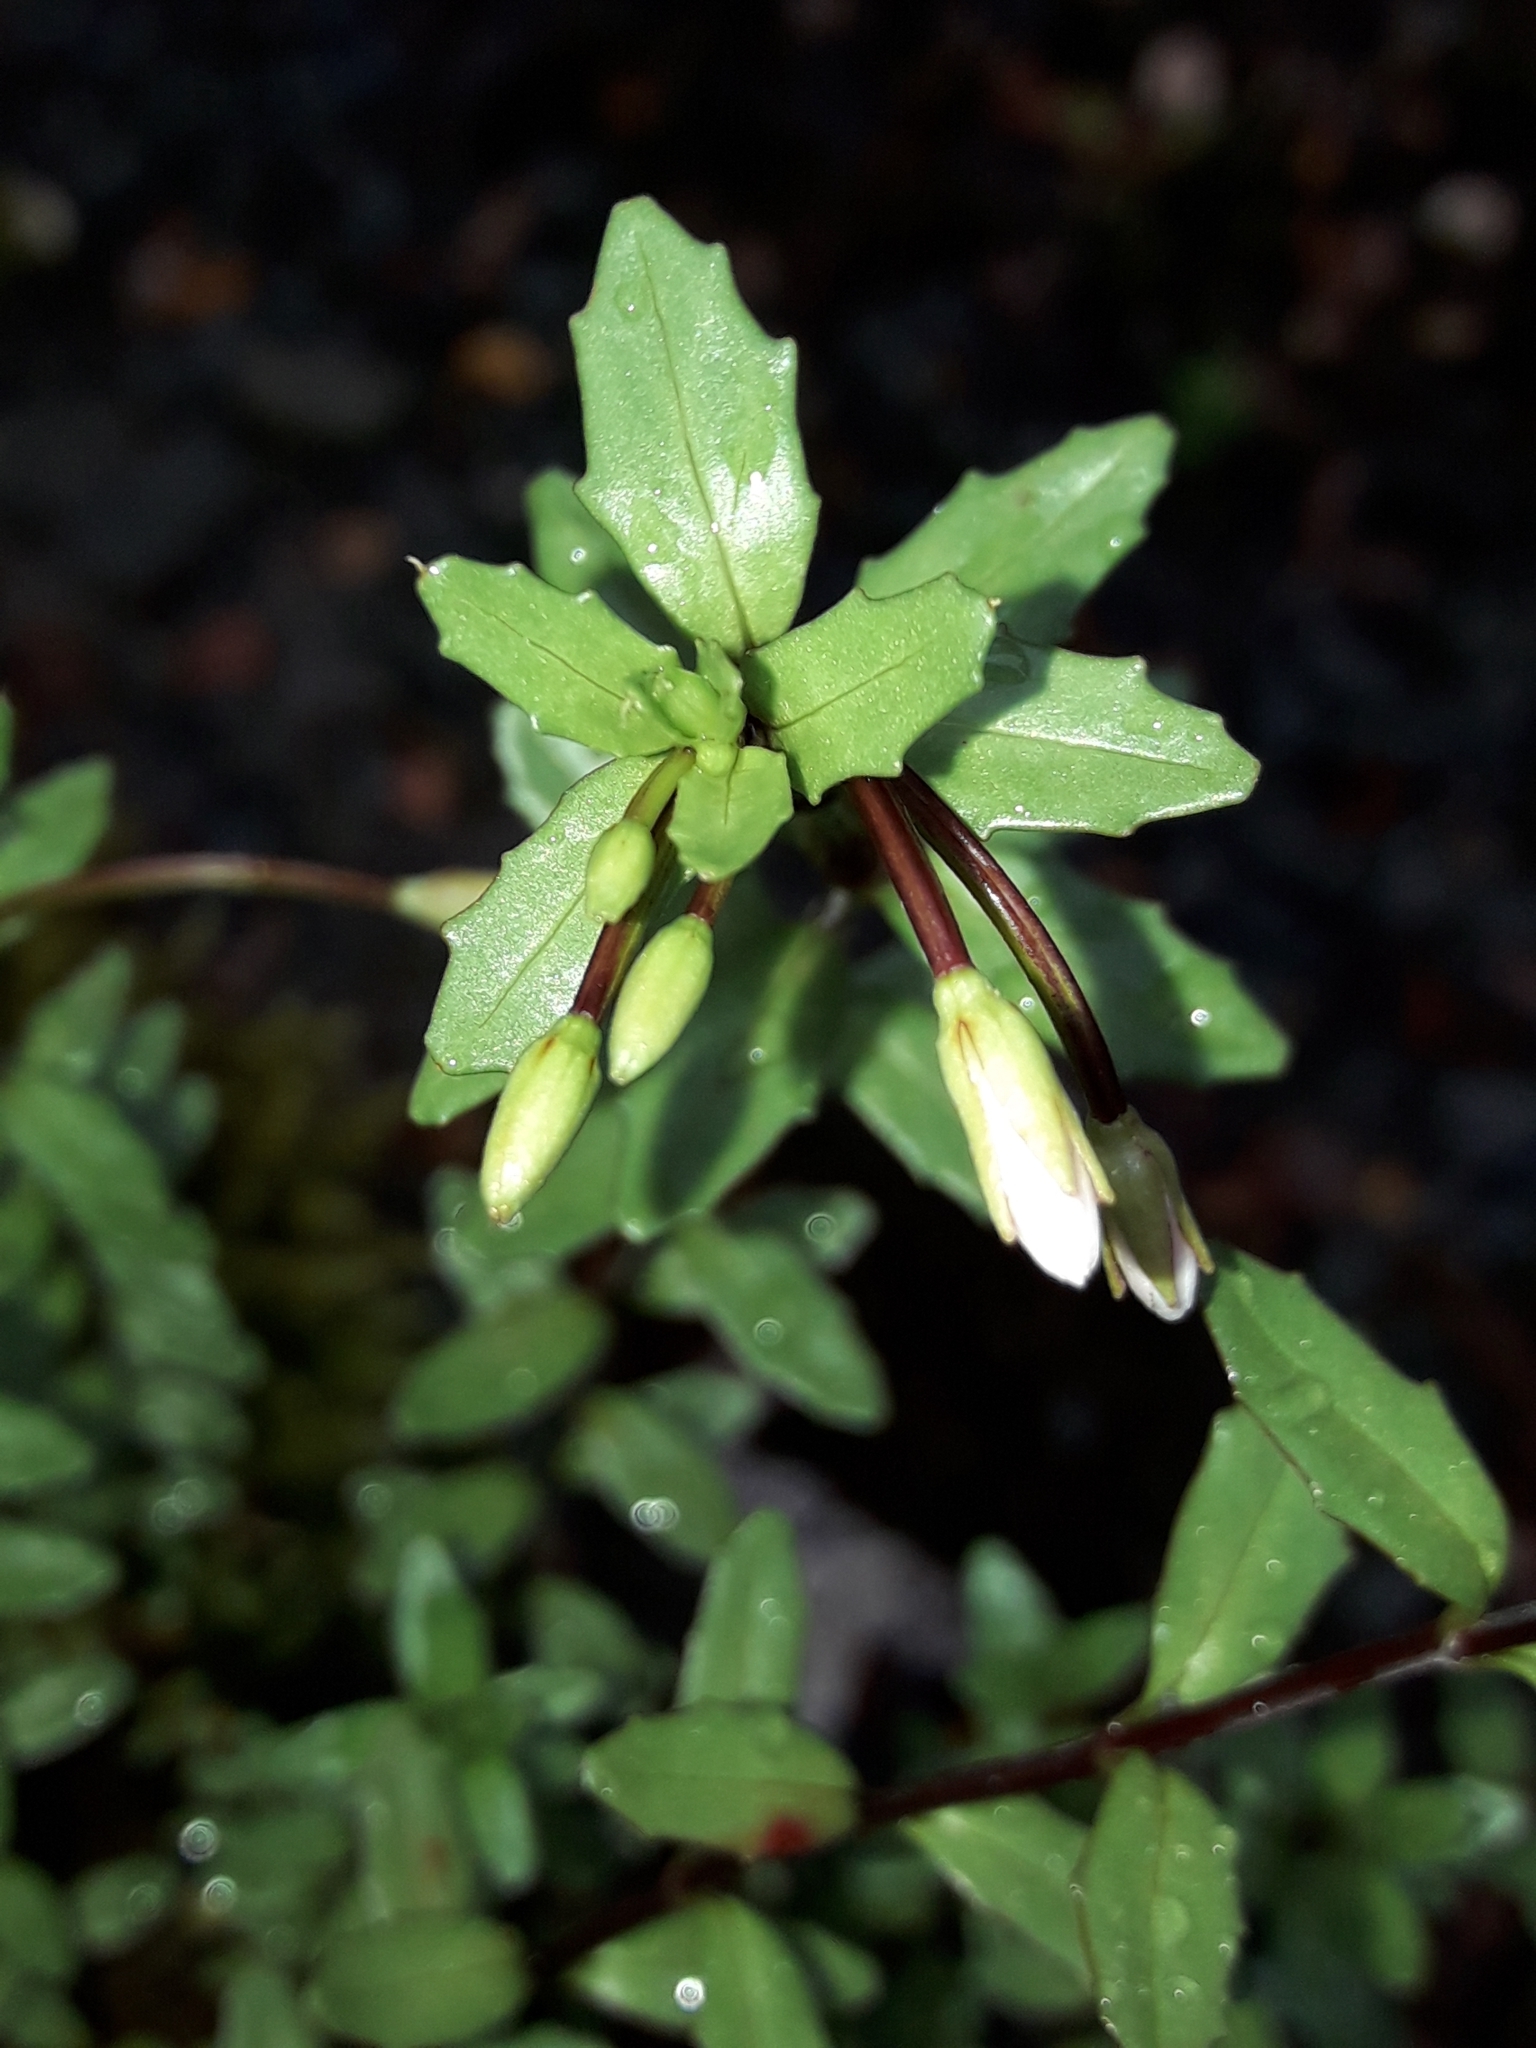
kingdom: Plantae
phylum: Tracheophyta
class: Magnoliopsida
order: Myrtales
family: Onagraceae
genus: Epilobium
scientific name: Epilobium glabellum
